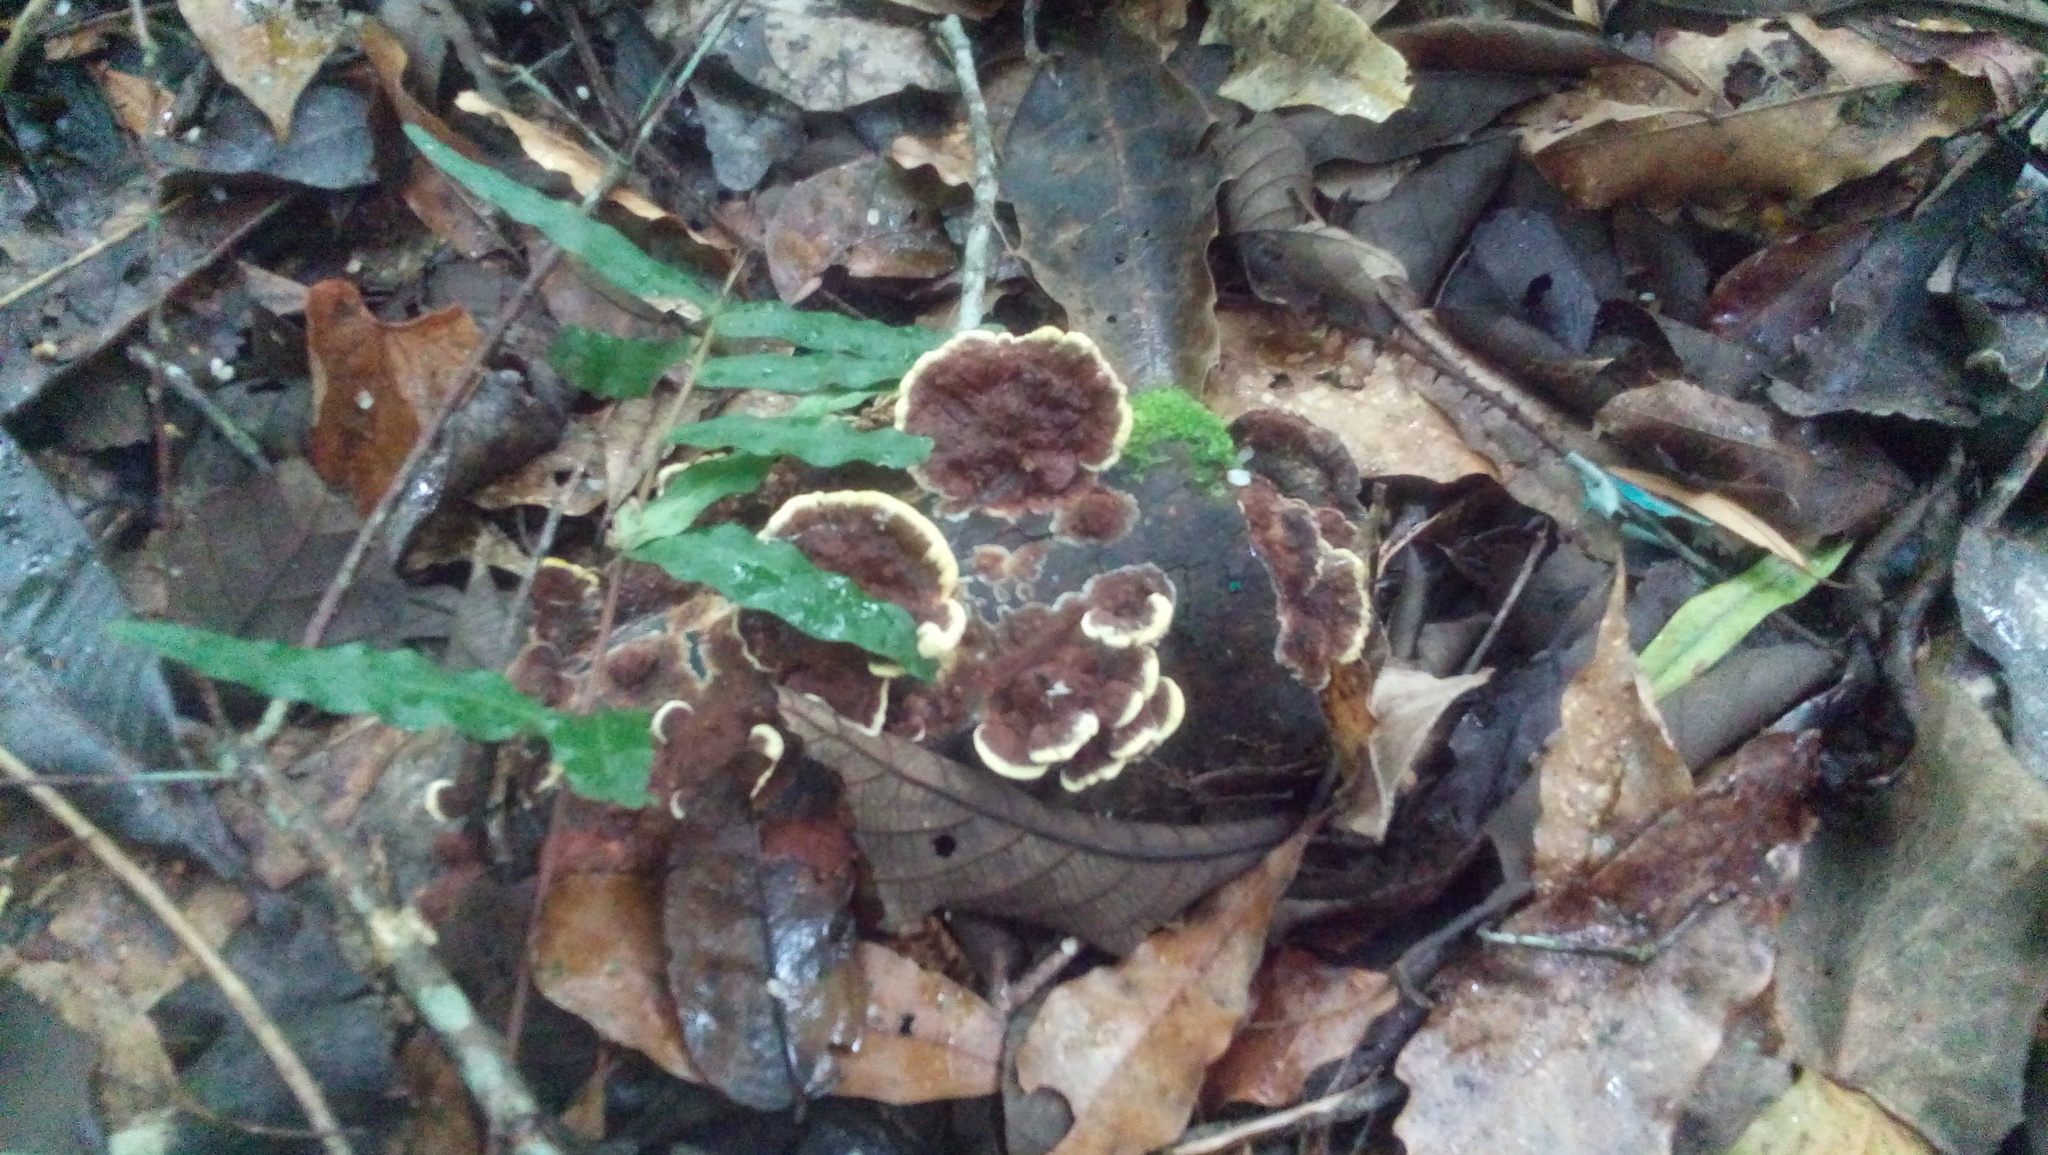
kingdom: Fungi
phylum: Basidiomycota
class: Agaricomycetes
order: Polyporales
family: Polyporaceae
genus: Earliella
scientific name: Earliella scabrosa
